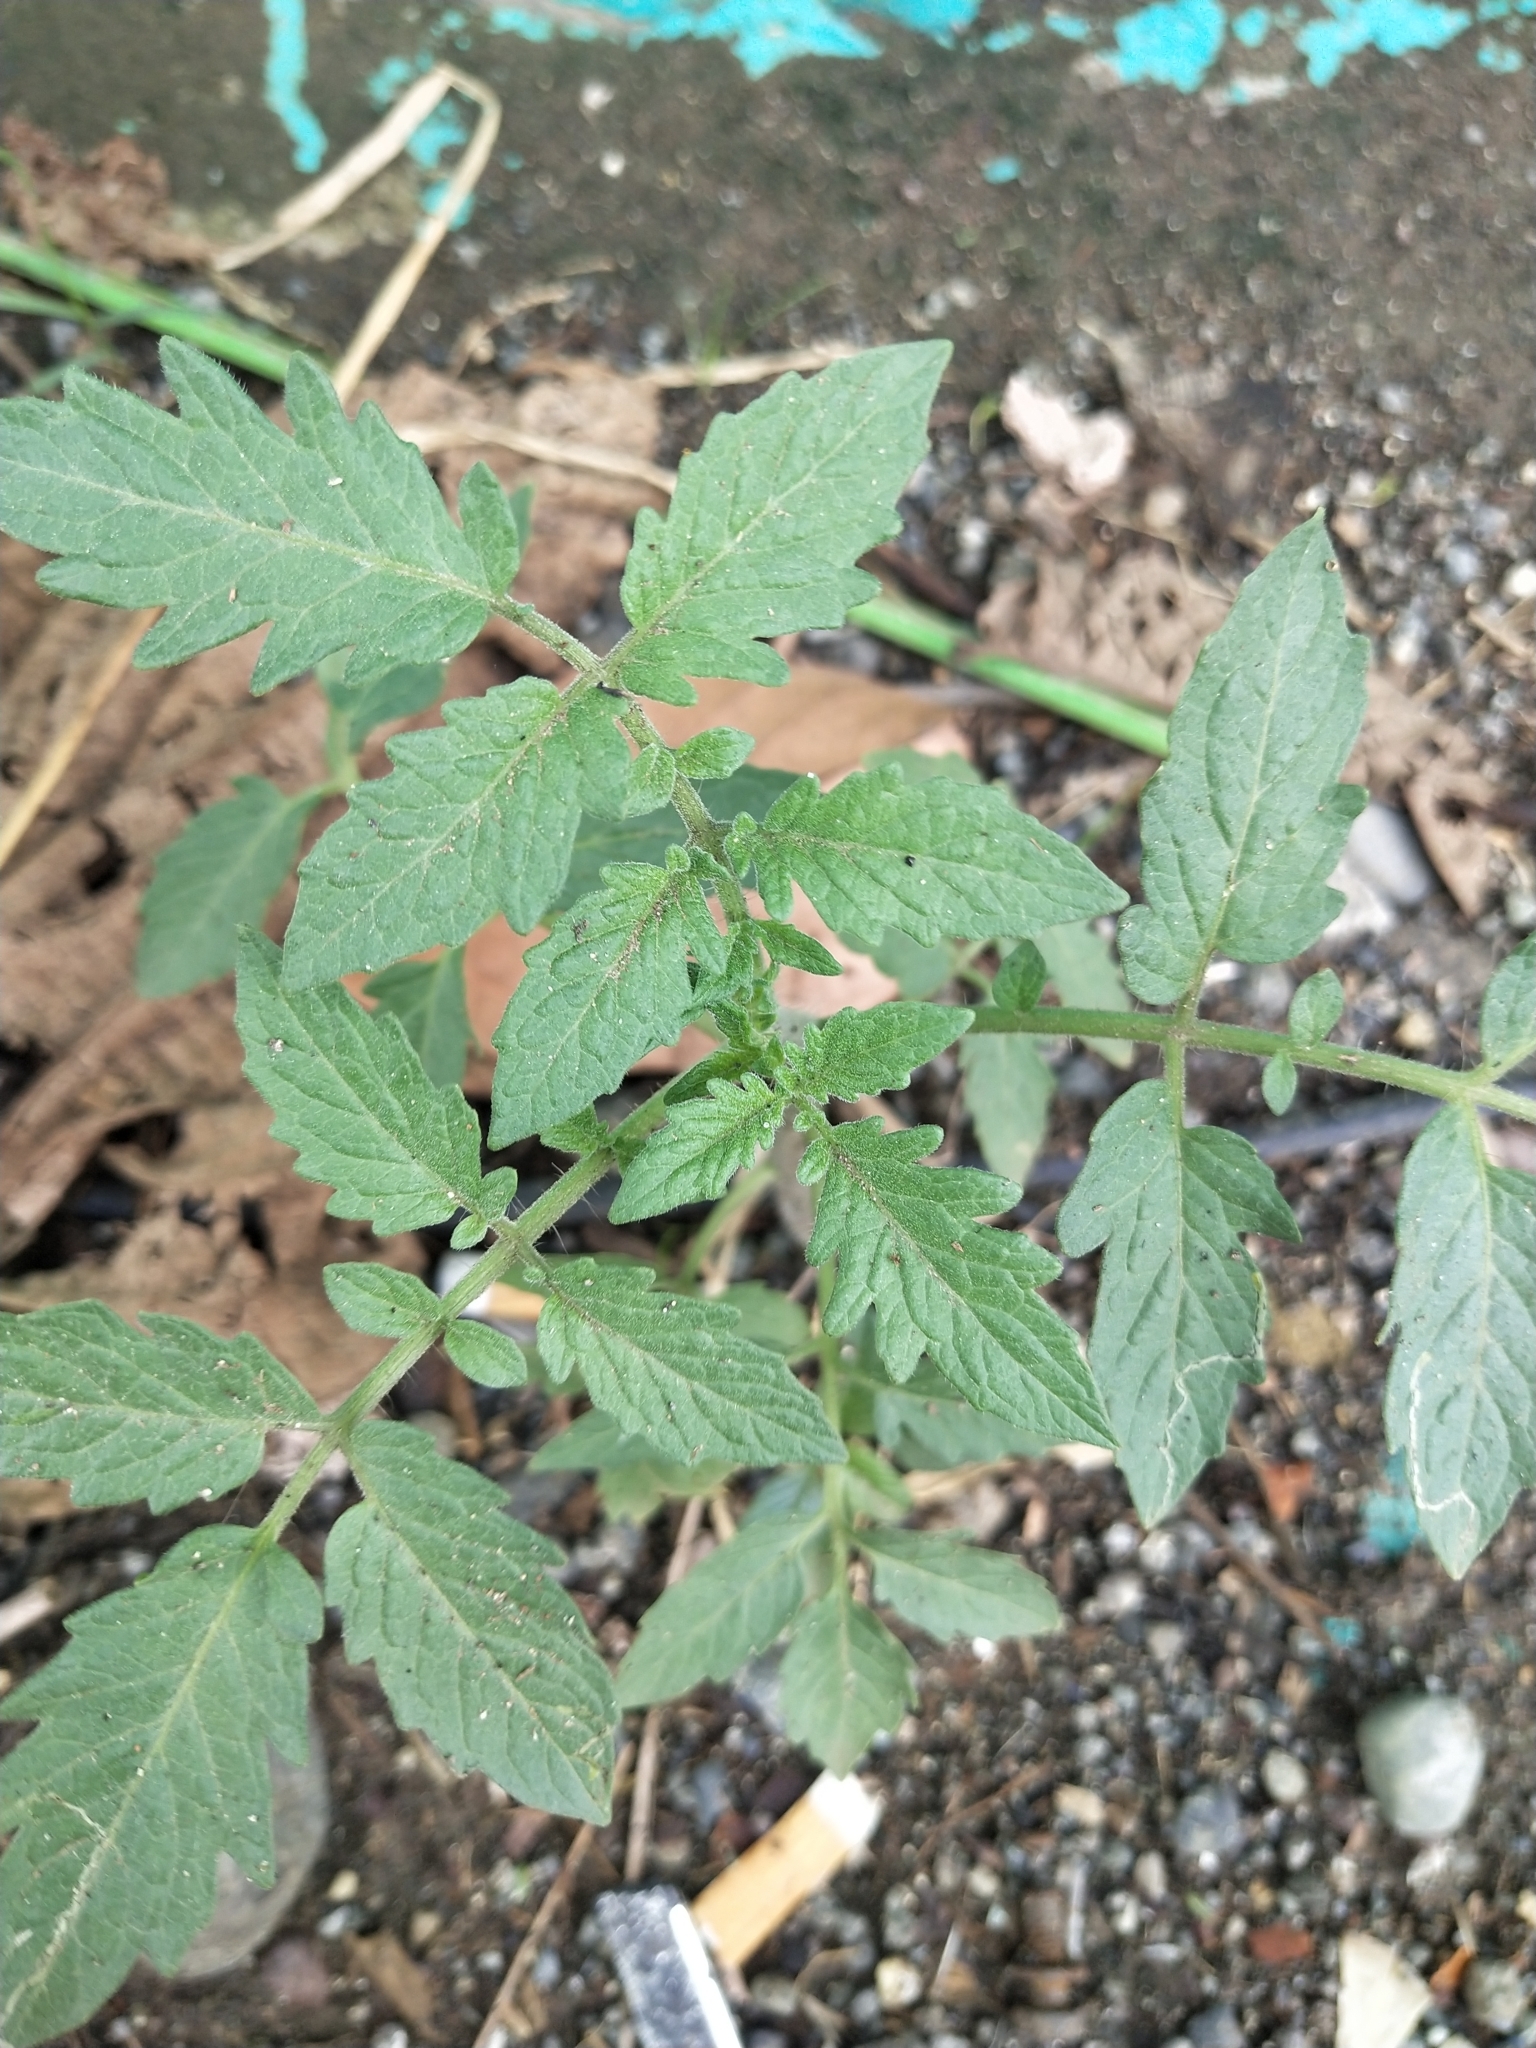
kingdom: Plantae
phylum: Tracheophyta
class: Magnoliopsida
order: Solanales
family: Solanaceae
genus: Solanum
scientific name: Solanum lycopersicum
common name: Garden tomato
